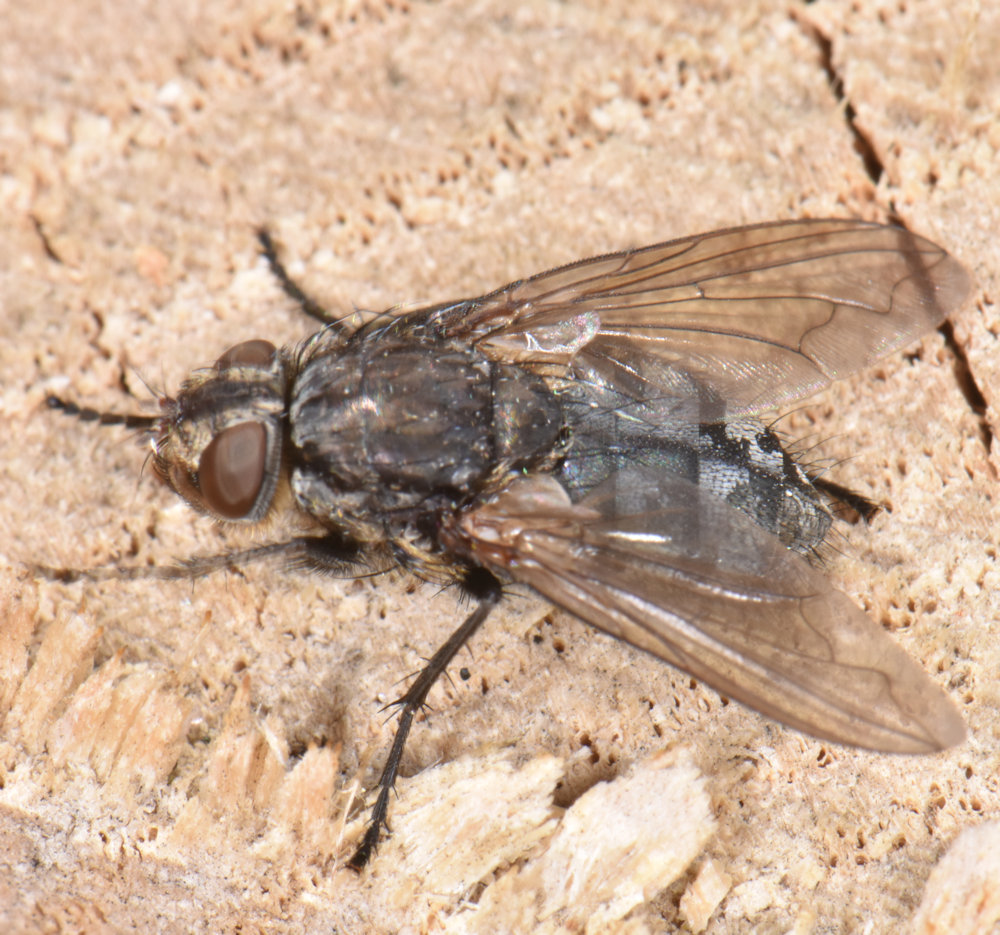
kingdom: Animalia
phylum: Arthropoda
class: Insecta
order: Diptera
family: Polleniidae
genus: Pollenia
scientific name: Pollenia vagabunda
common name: Vagabund cluster fly
